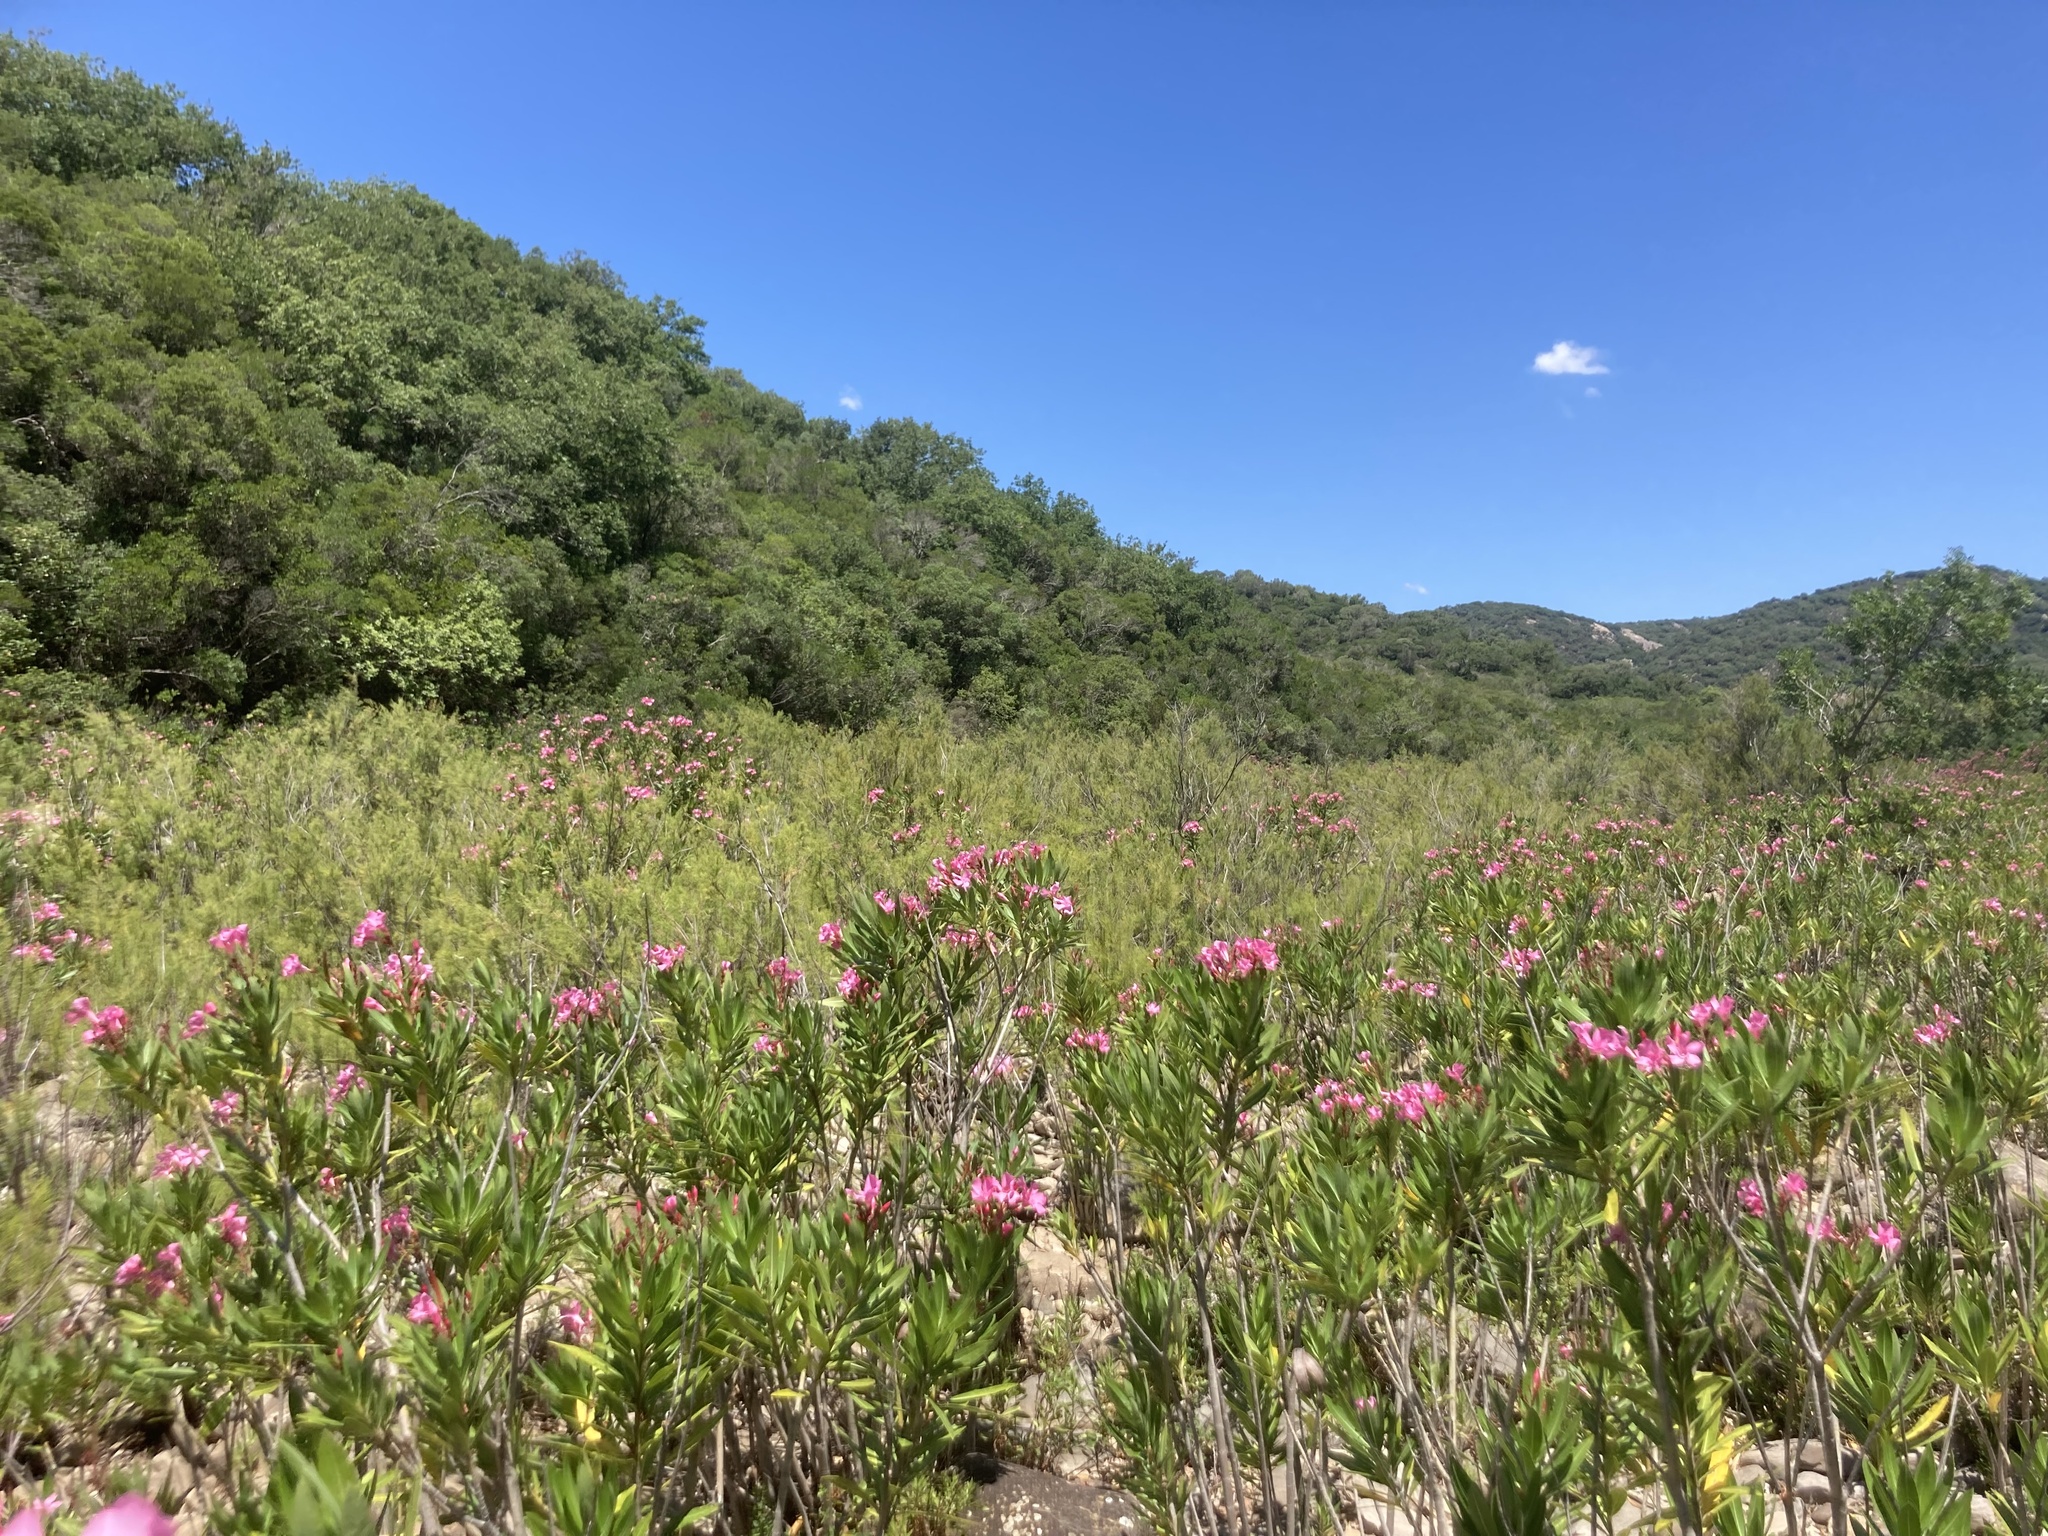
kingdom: Plantae
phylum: Tracheophyta
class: Magnoliopsida
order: Gentianales
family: Apocynaceae
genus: Nerium
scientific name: Nerium oleander
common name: Oleander
